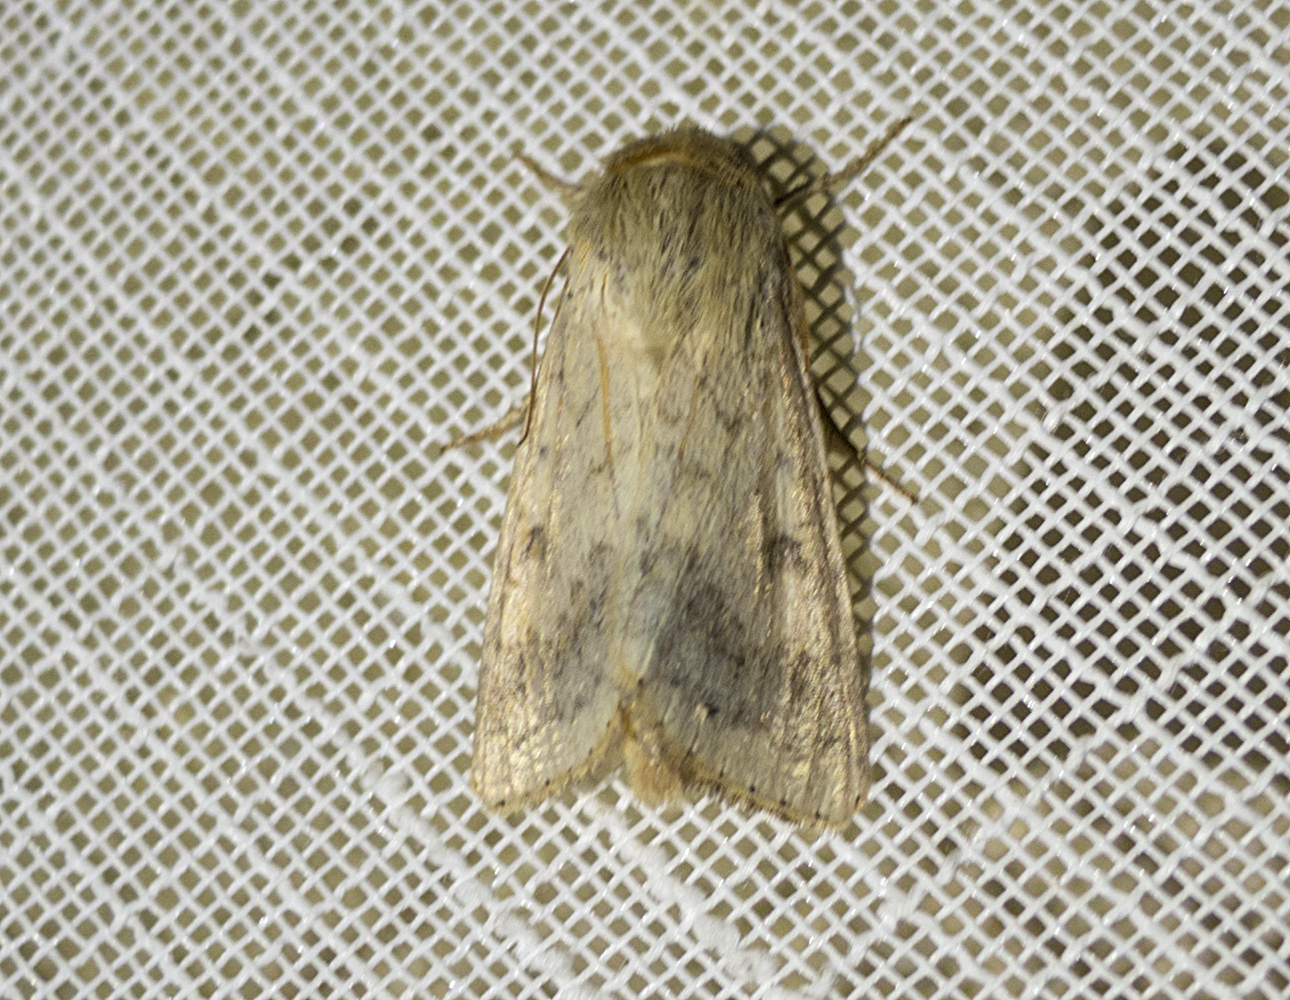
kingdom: Animalia
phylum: Arthropoda
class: Insecta
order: Lepidoptera
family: Noctuidae
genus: Helicoverpa
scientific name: Helicoverpa armigera
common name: Cotton bollworm
